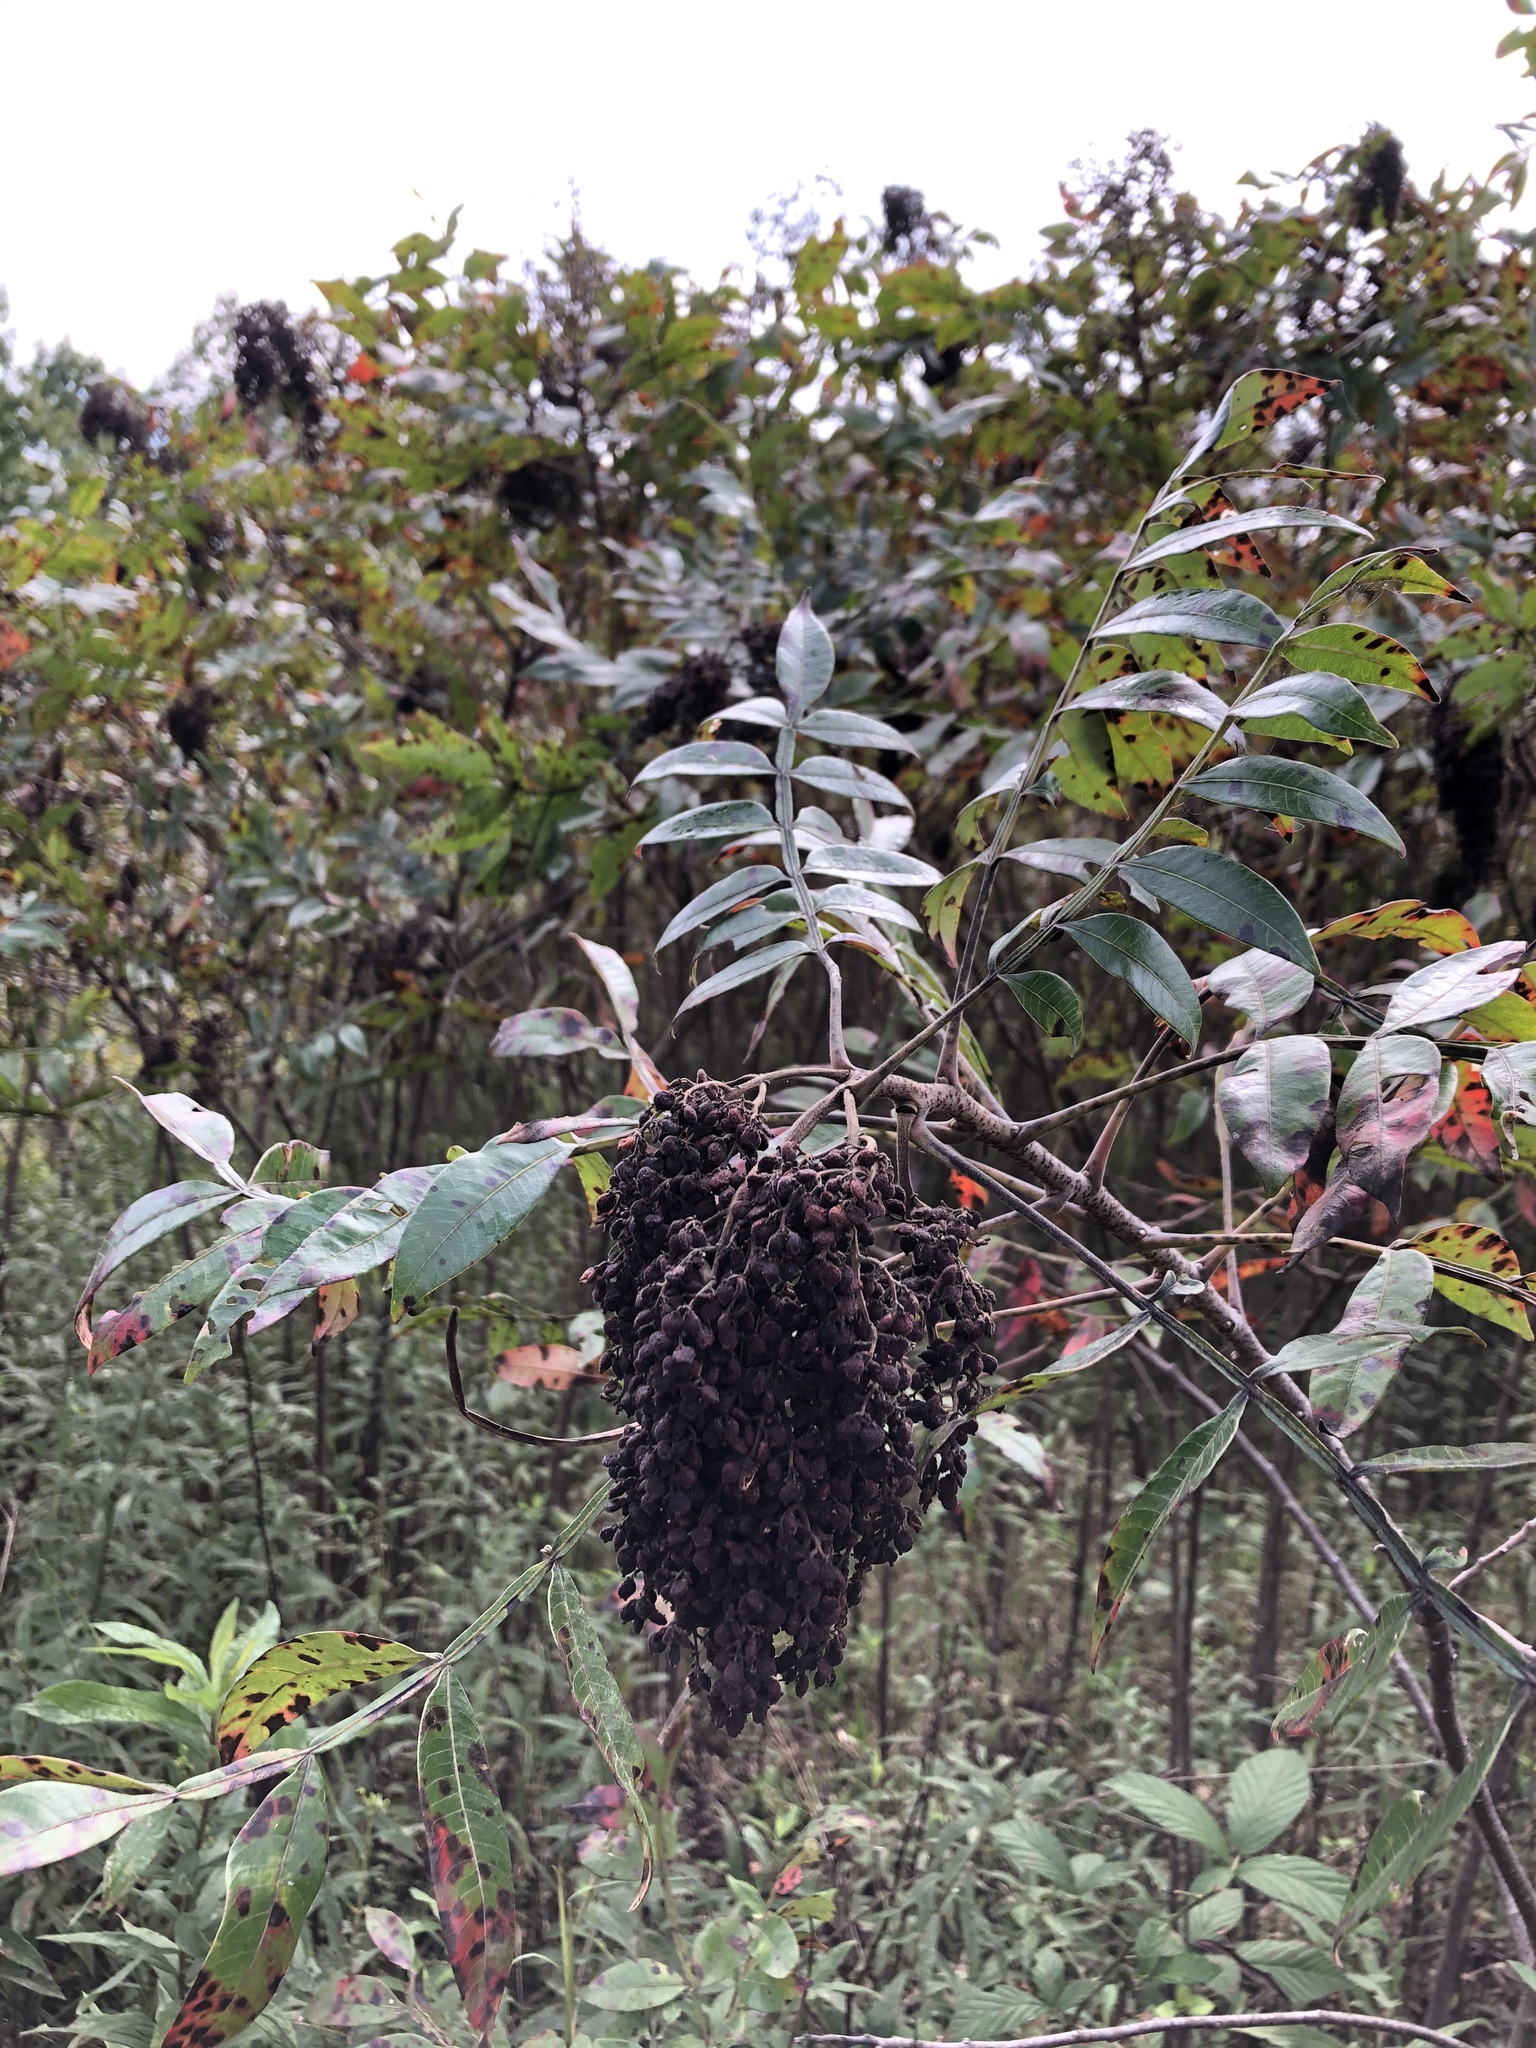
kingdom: Plantae
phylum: Tracheophyta
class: Magnoliopsida
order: Sapindales
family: Anacardiaceae
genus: Rhus
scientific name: Rhus copallina
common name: Shining sumac
